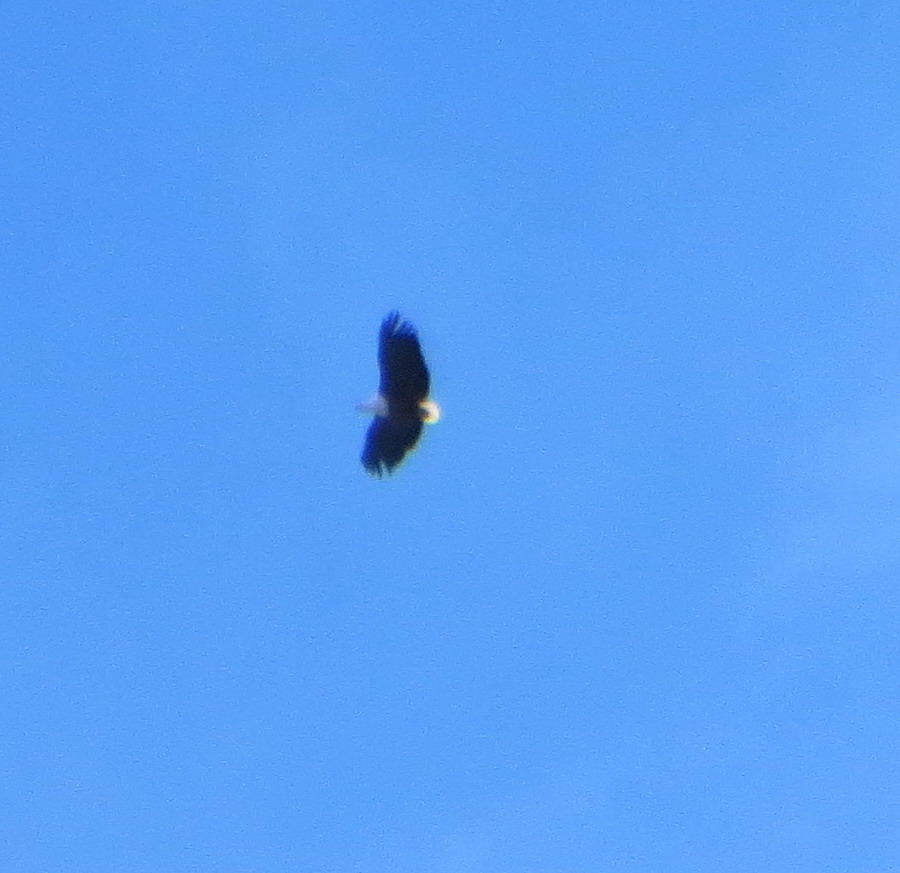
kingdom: Animalia
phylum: Chordata
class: Aves
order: Accipitriformes
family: Accipitridae
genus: Haliaeetus
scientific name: Haliaeetus vocifer
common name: African fish eagle
